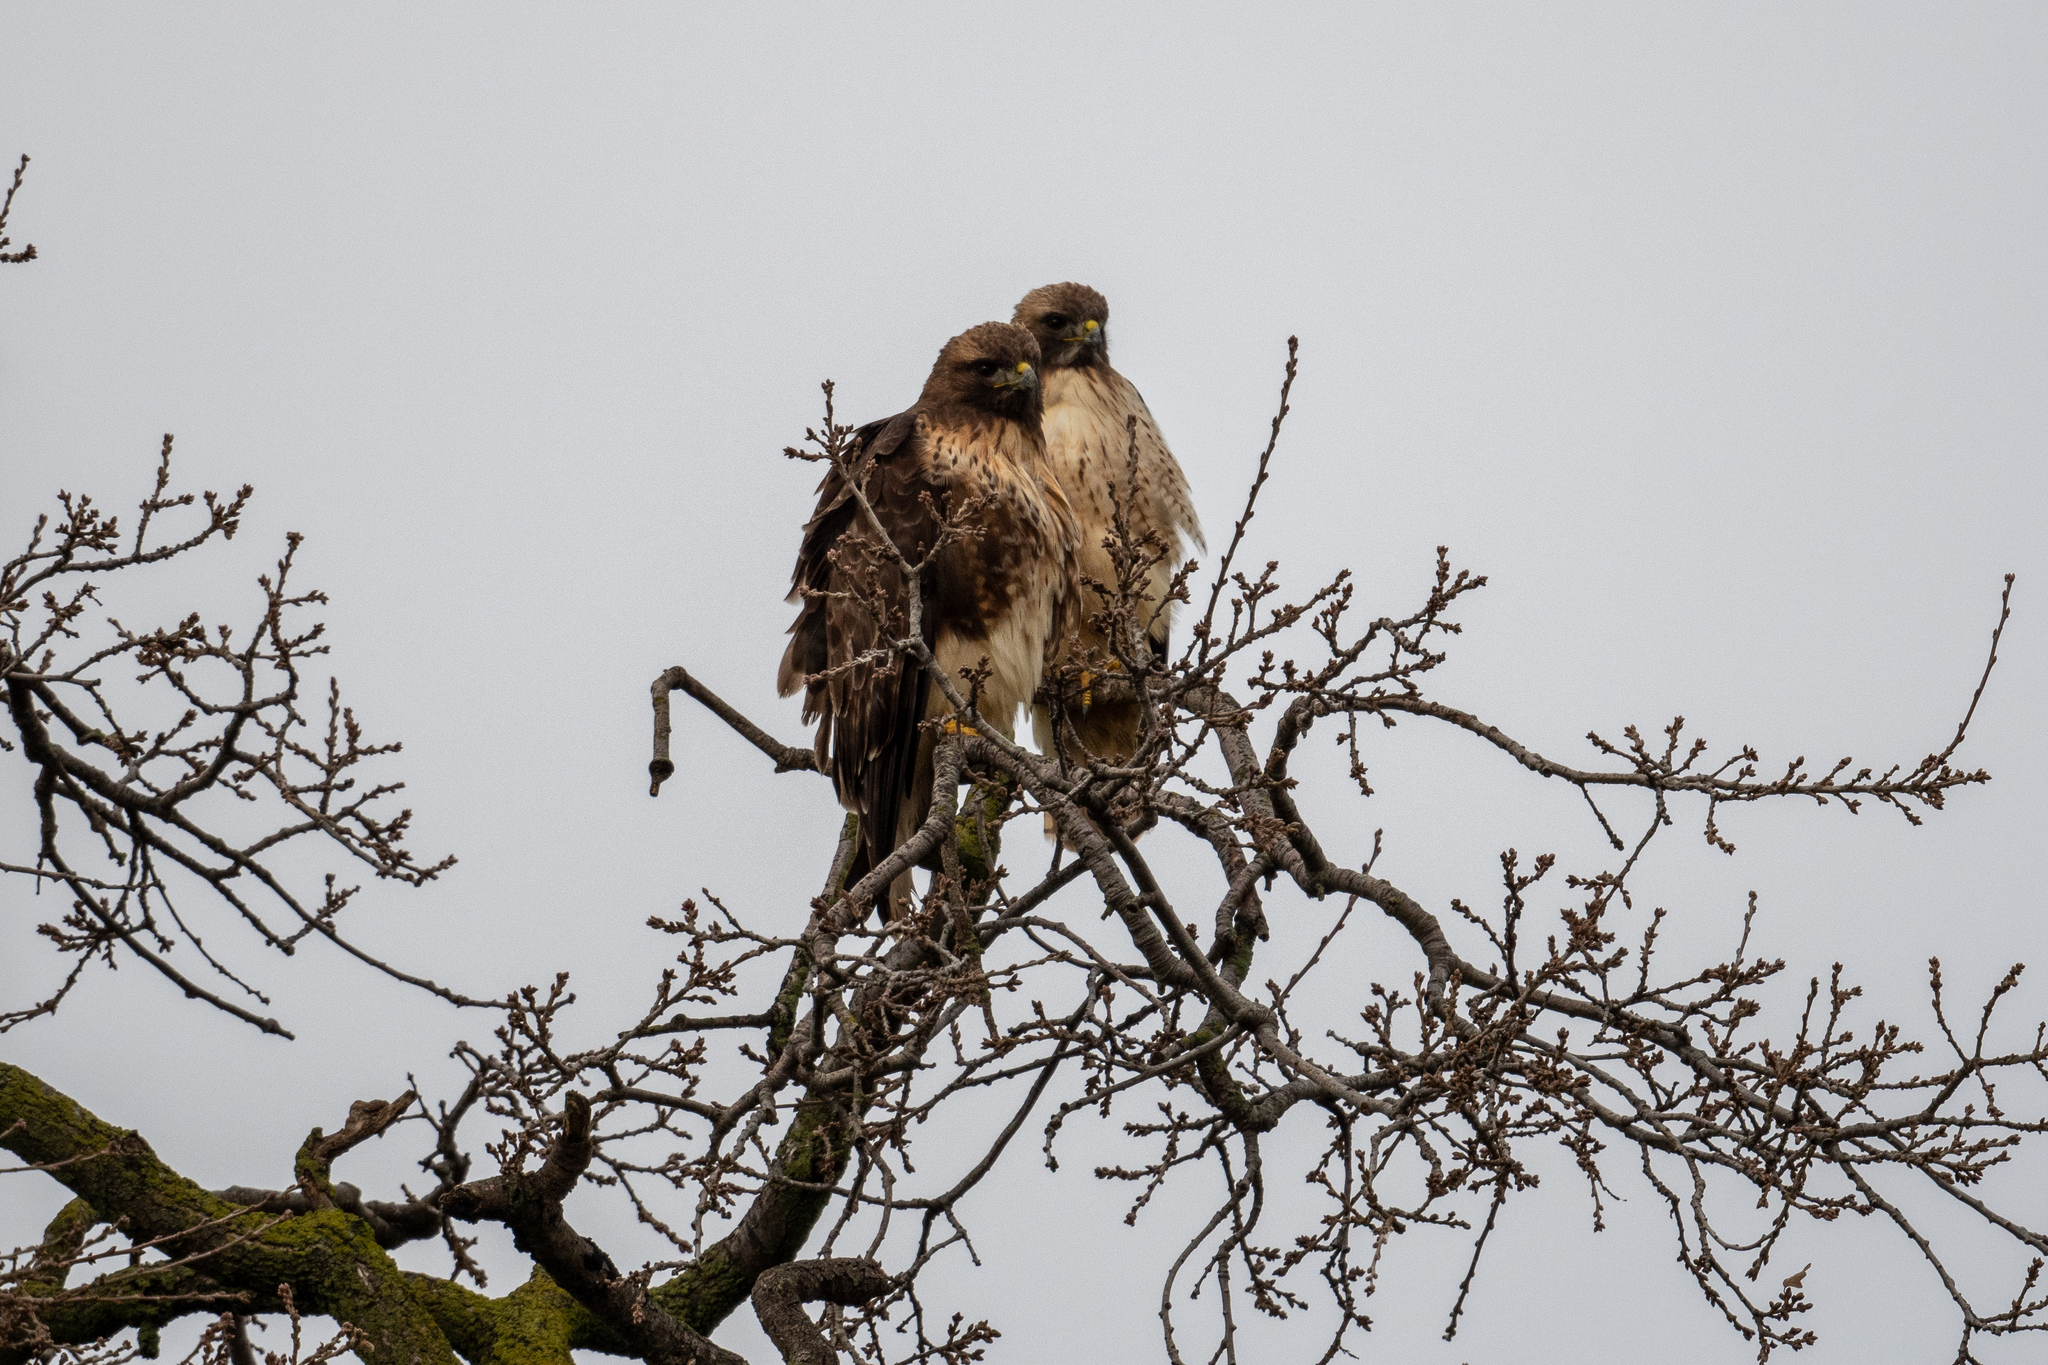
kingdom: Animalia
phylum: Chordata
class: Aves
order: Accipitriformes
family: Accipitridae
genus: Buteo
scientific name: Buteo jamaicensis
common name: Red-tailed hawk
